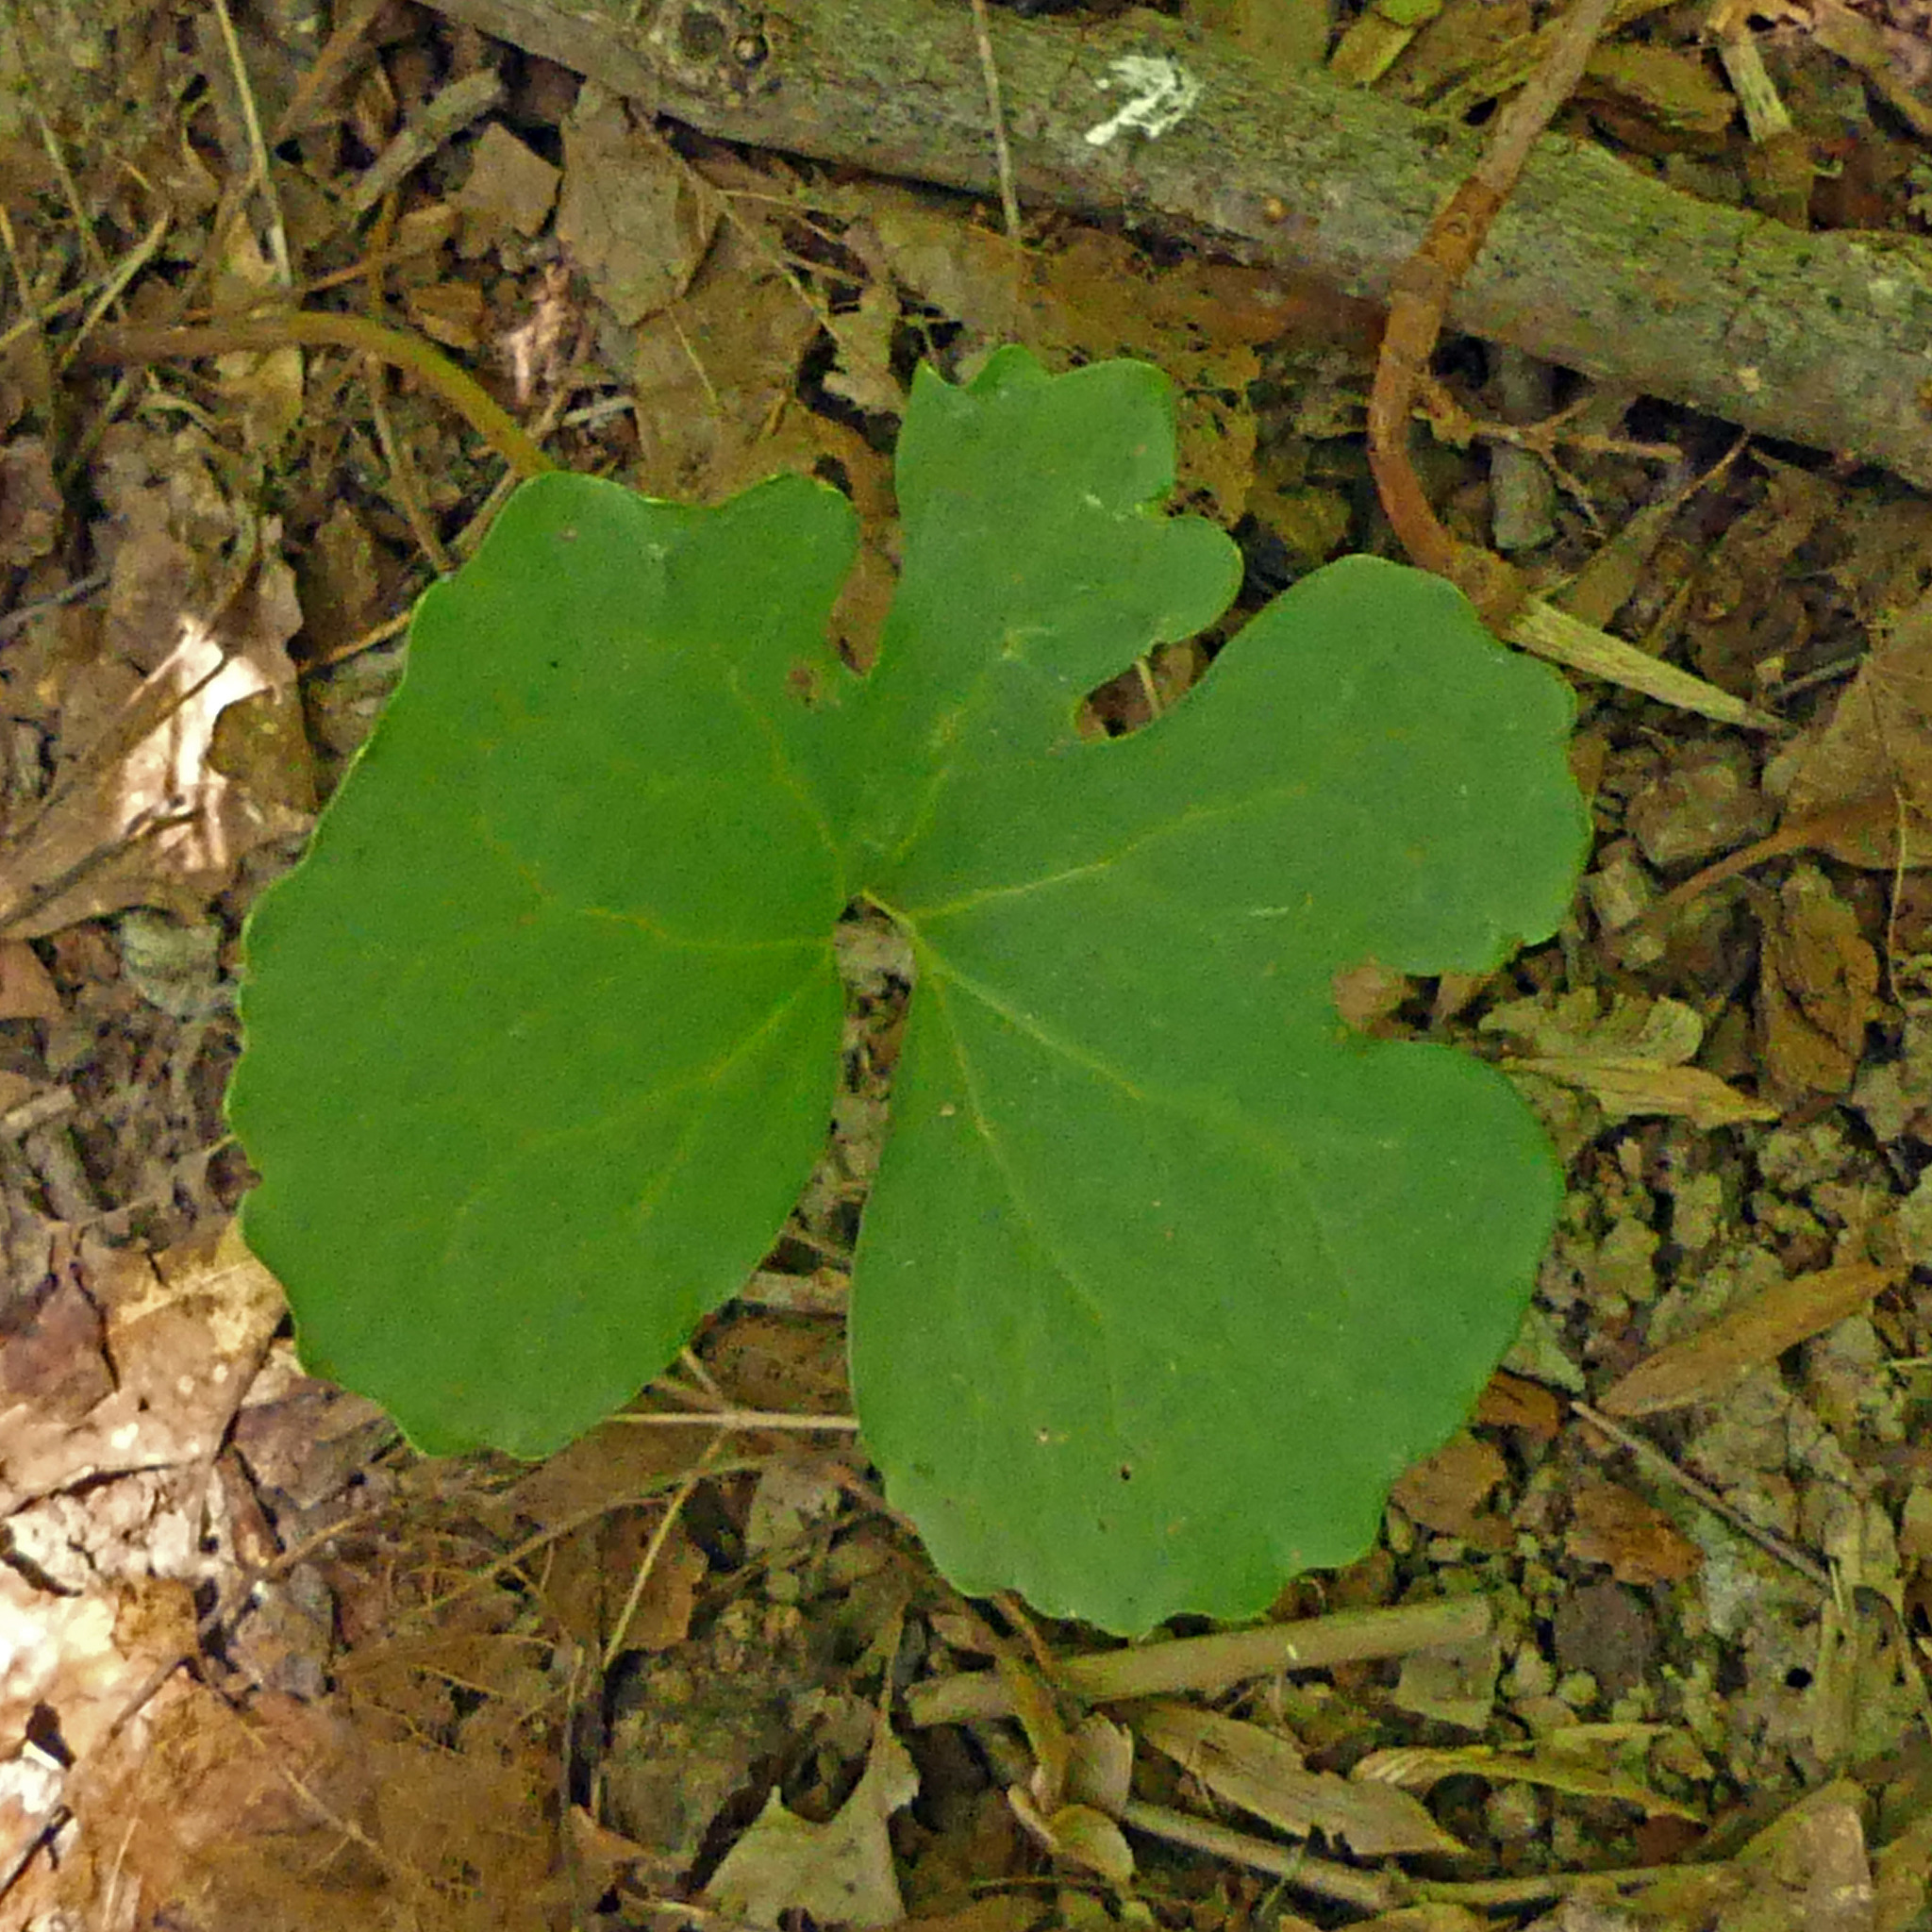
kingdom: Plantae
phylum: Tracheophyta
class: Magnoliopsida
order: Ranunculales
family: Papaveraceae
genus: Sanguinaria
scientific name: Sanguinaria canadensis
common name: Bloodroot
